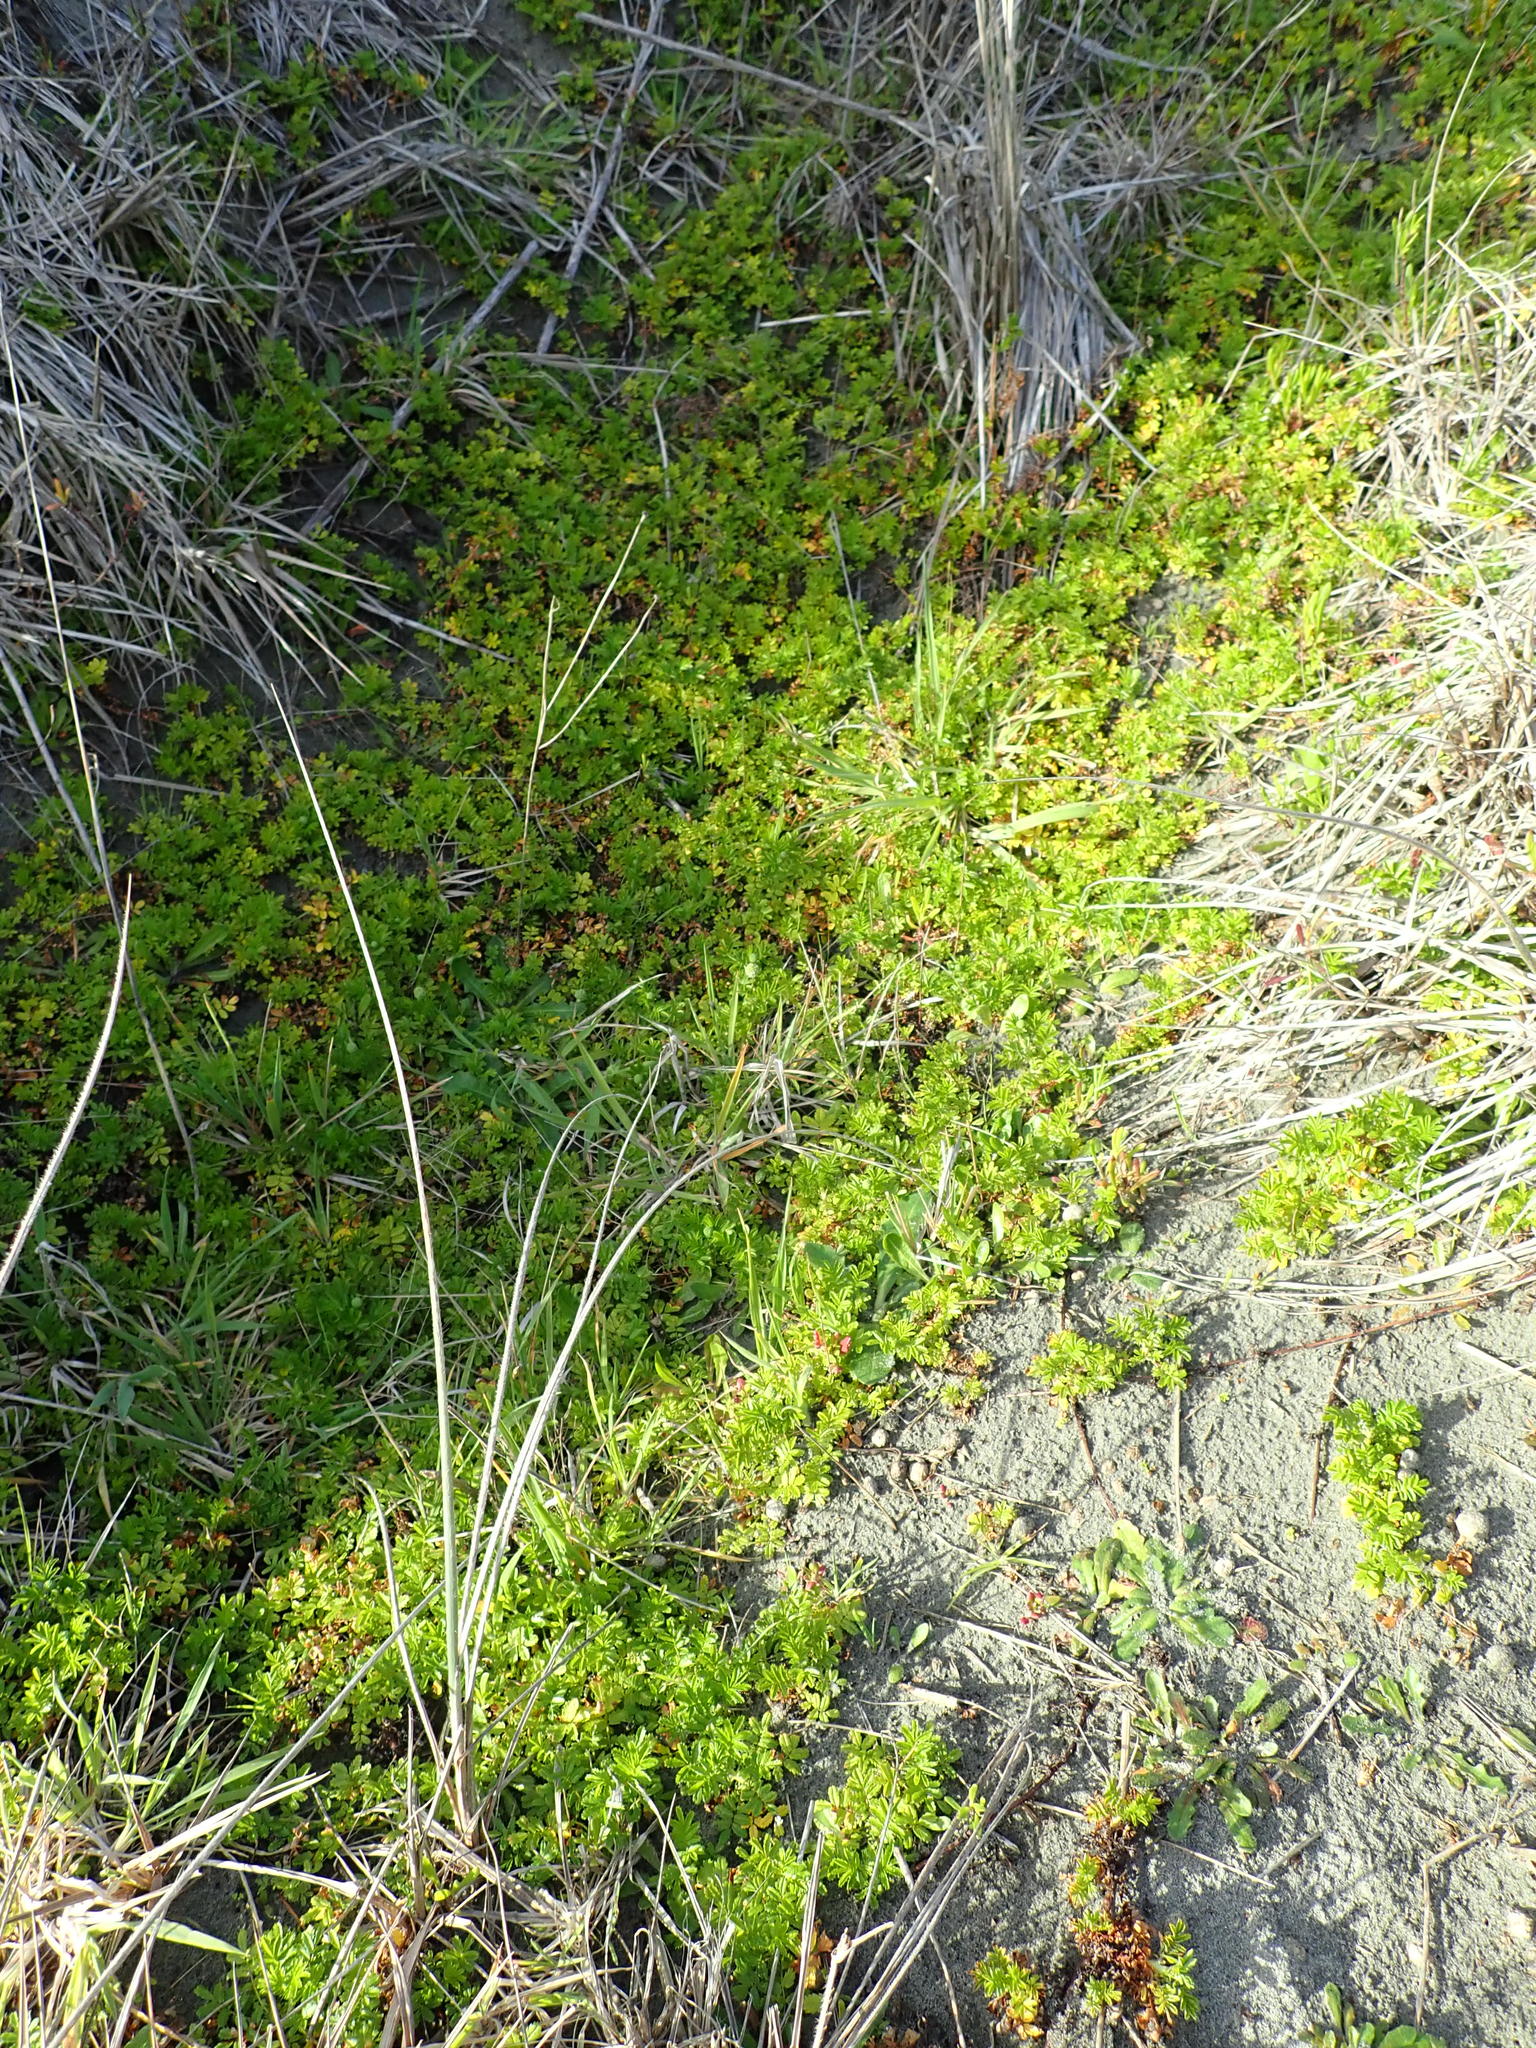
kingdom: Plantae
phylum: Tracheophyta
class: Magnoliopsida
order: Rosales
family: Rosaceae
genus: Acaena
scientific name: Acaena novae-zelandiae
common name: Pirri-pirri-bur
